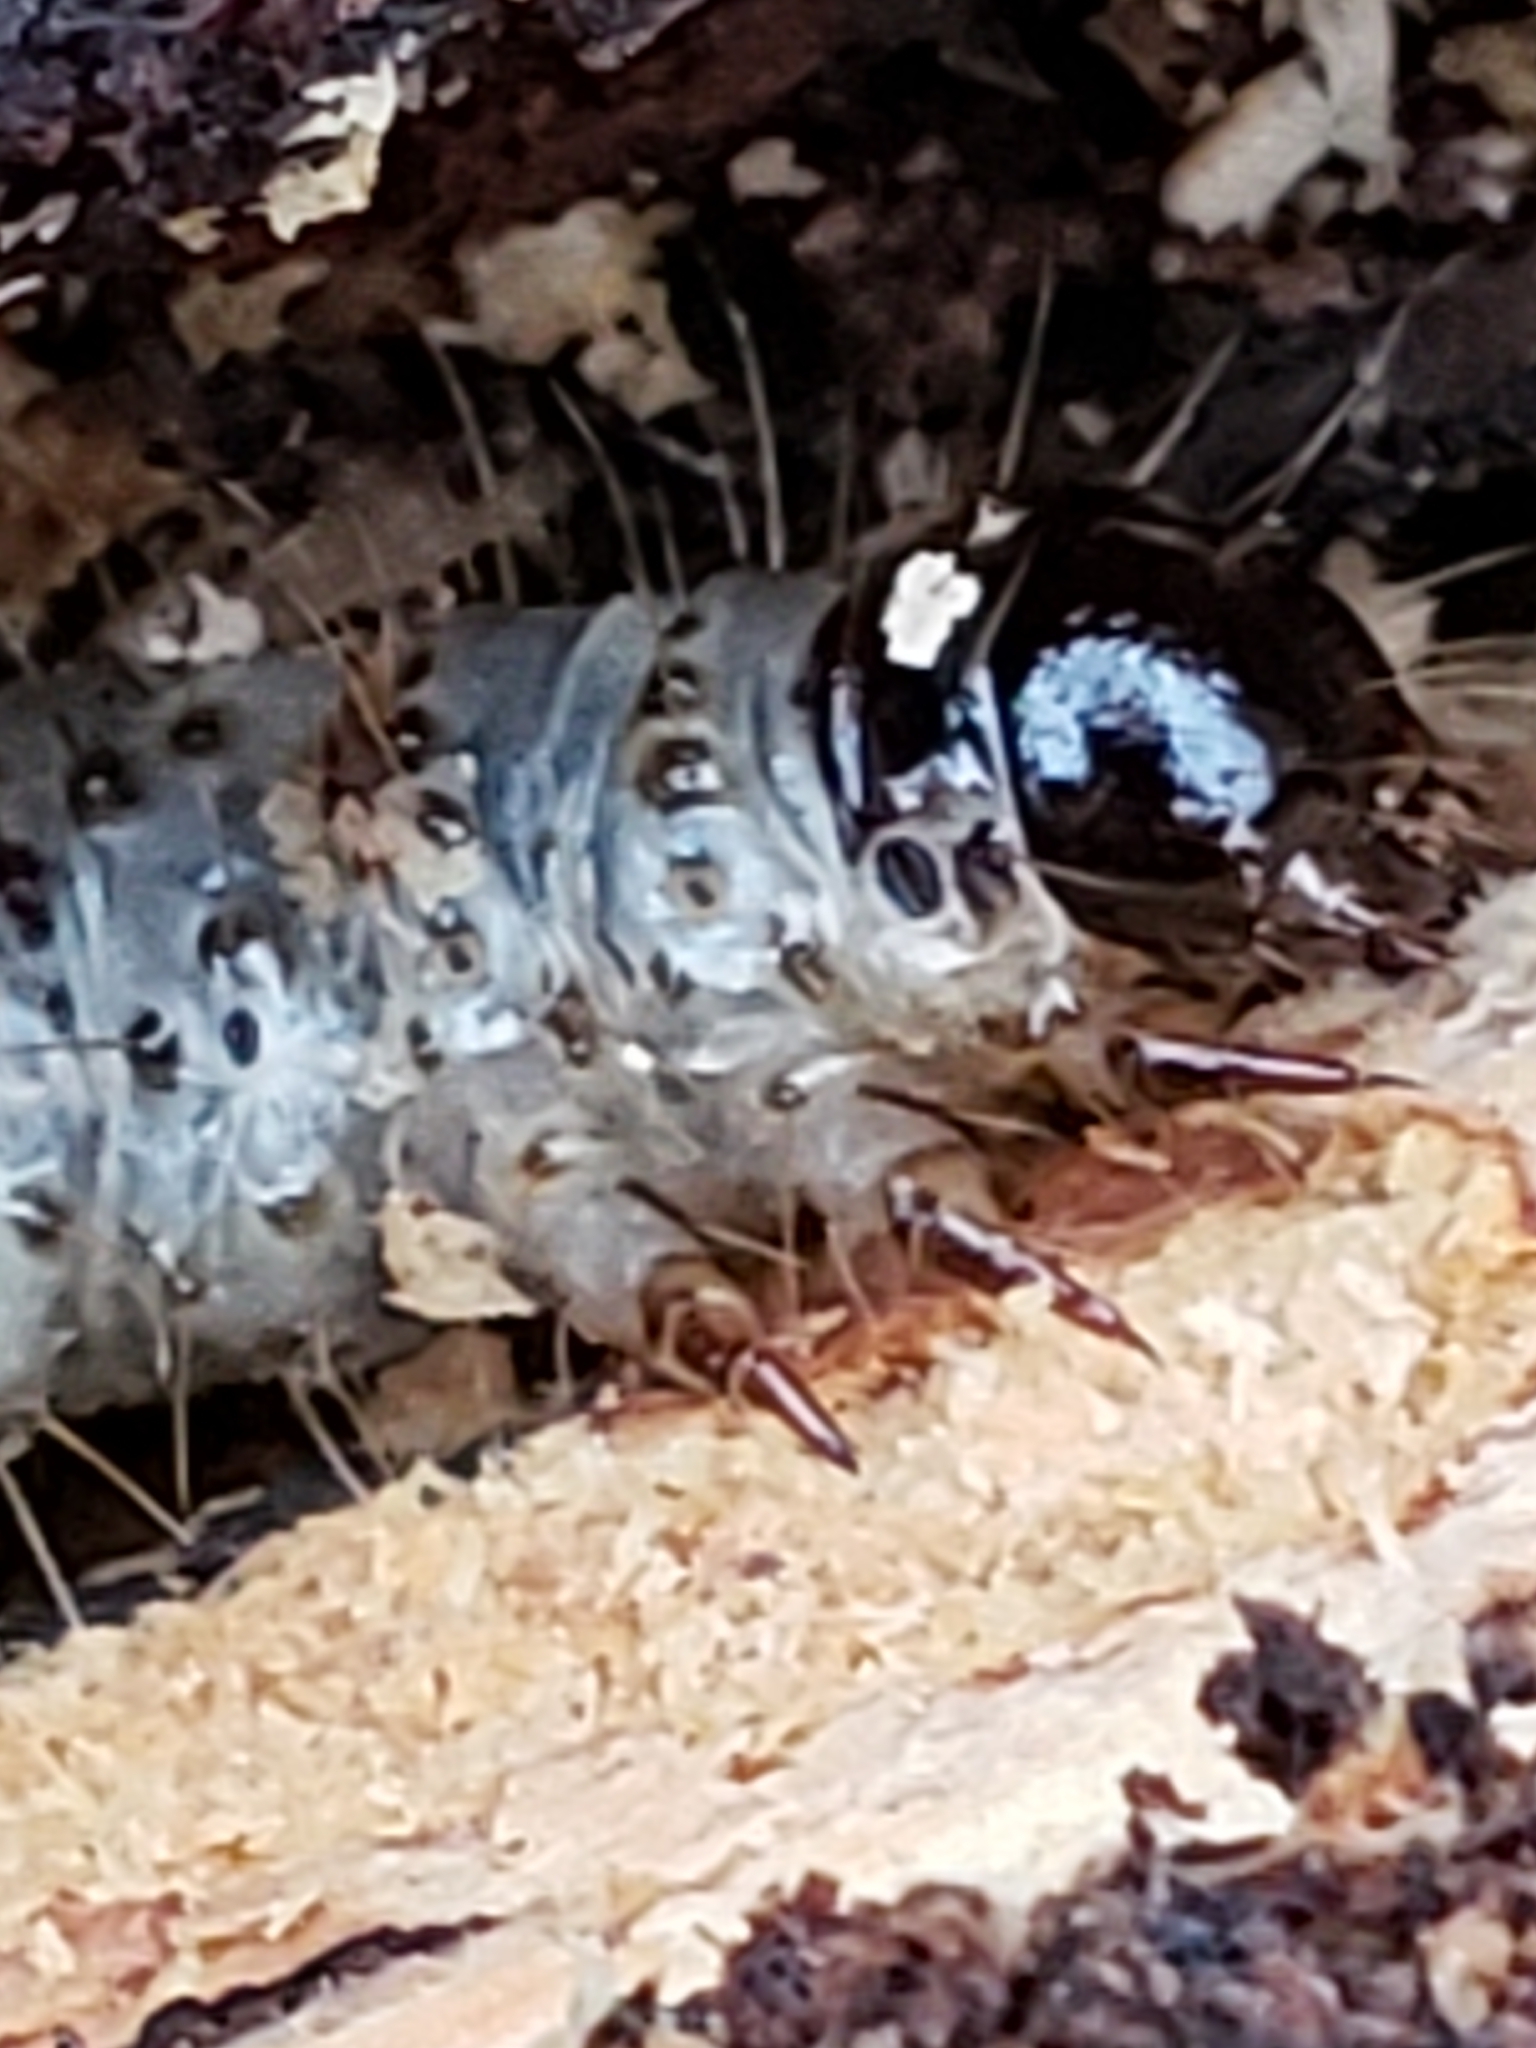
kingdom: Animalia
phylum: Arthropoda
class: Insecta
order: Lepidoptera
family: Erebidae
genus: Scolecocampa
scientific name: Scolecocampa liburna
